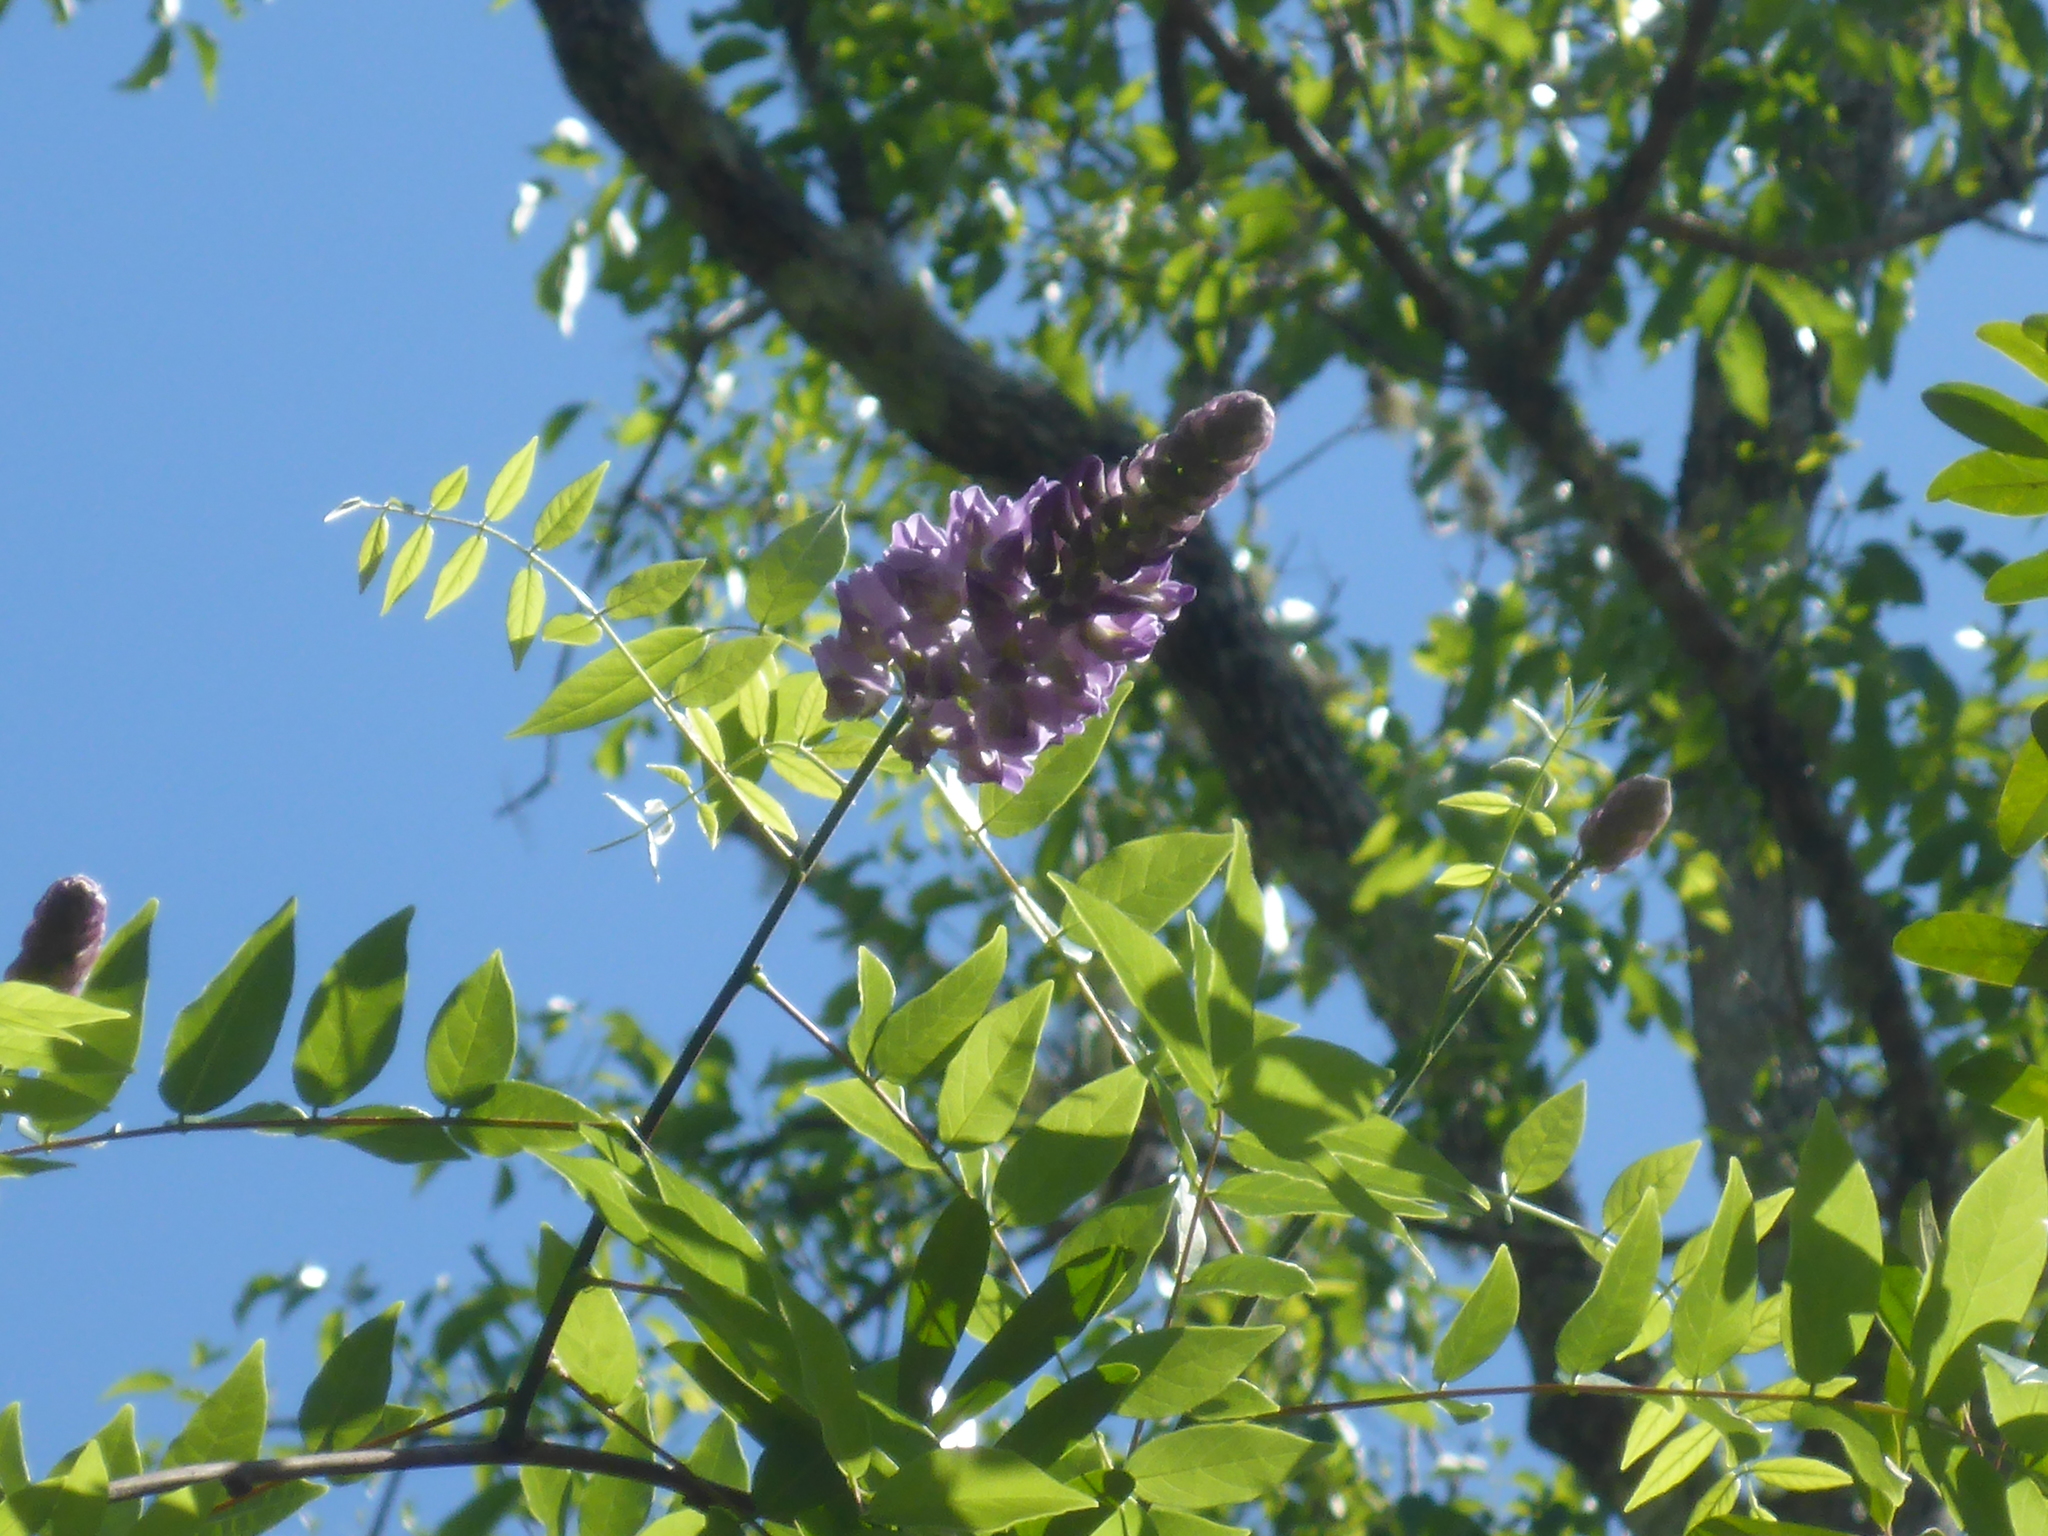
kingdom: Plantae
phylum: Tracheophyta
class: Magnoliopsida
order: Fabales
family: Fabaceae
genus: Wisteria
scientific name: Wisteria frutescens
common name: American wisteria
